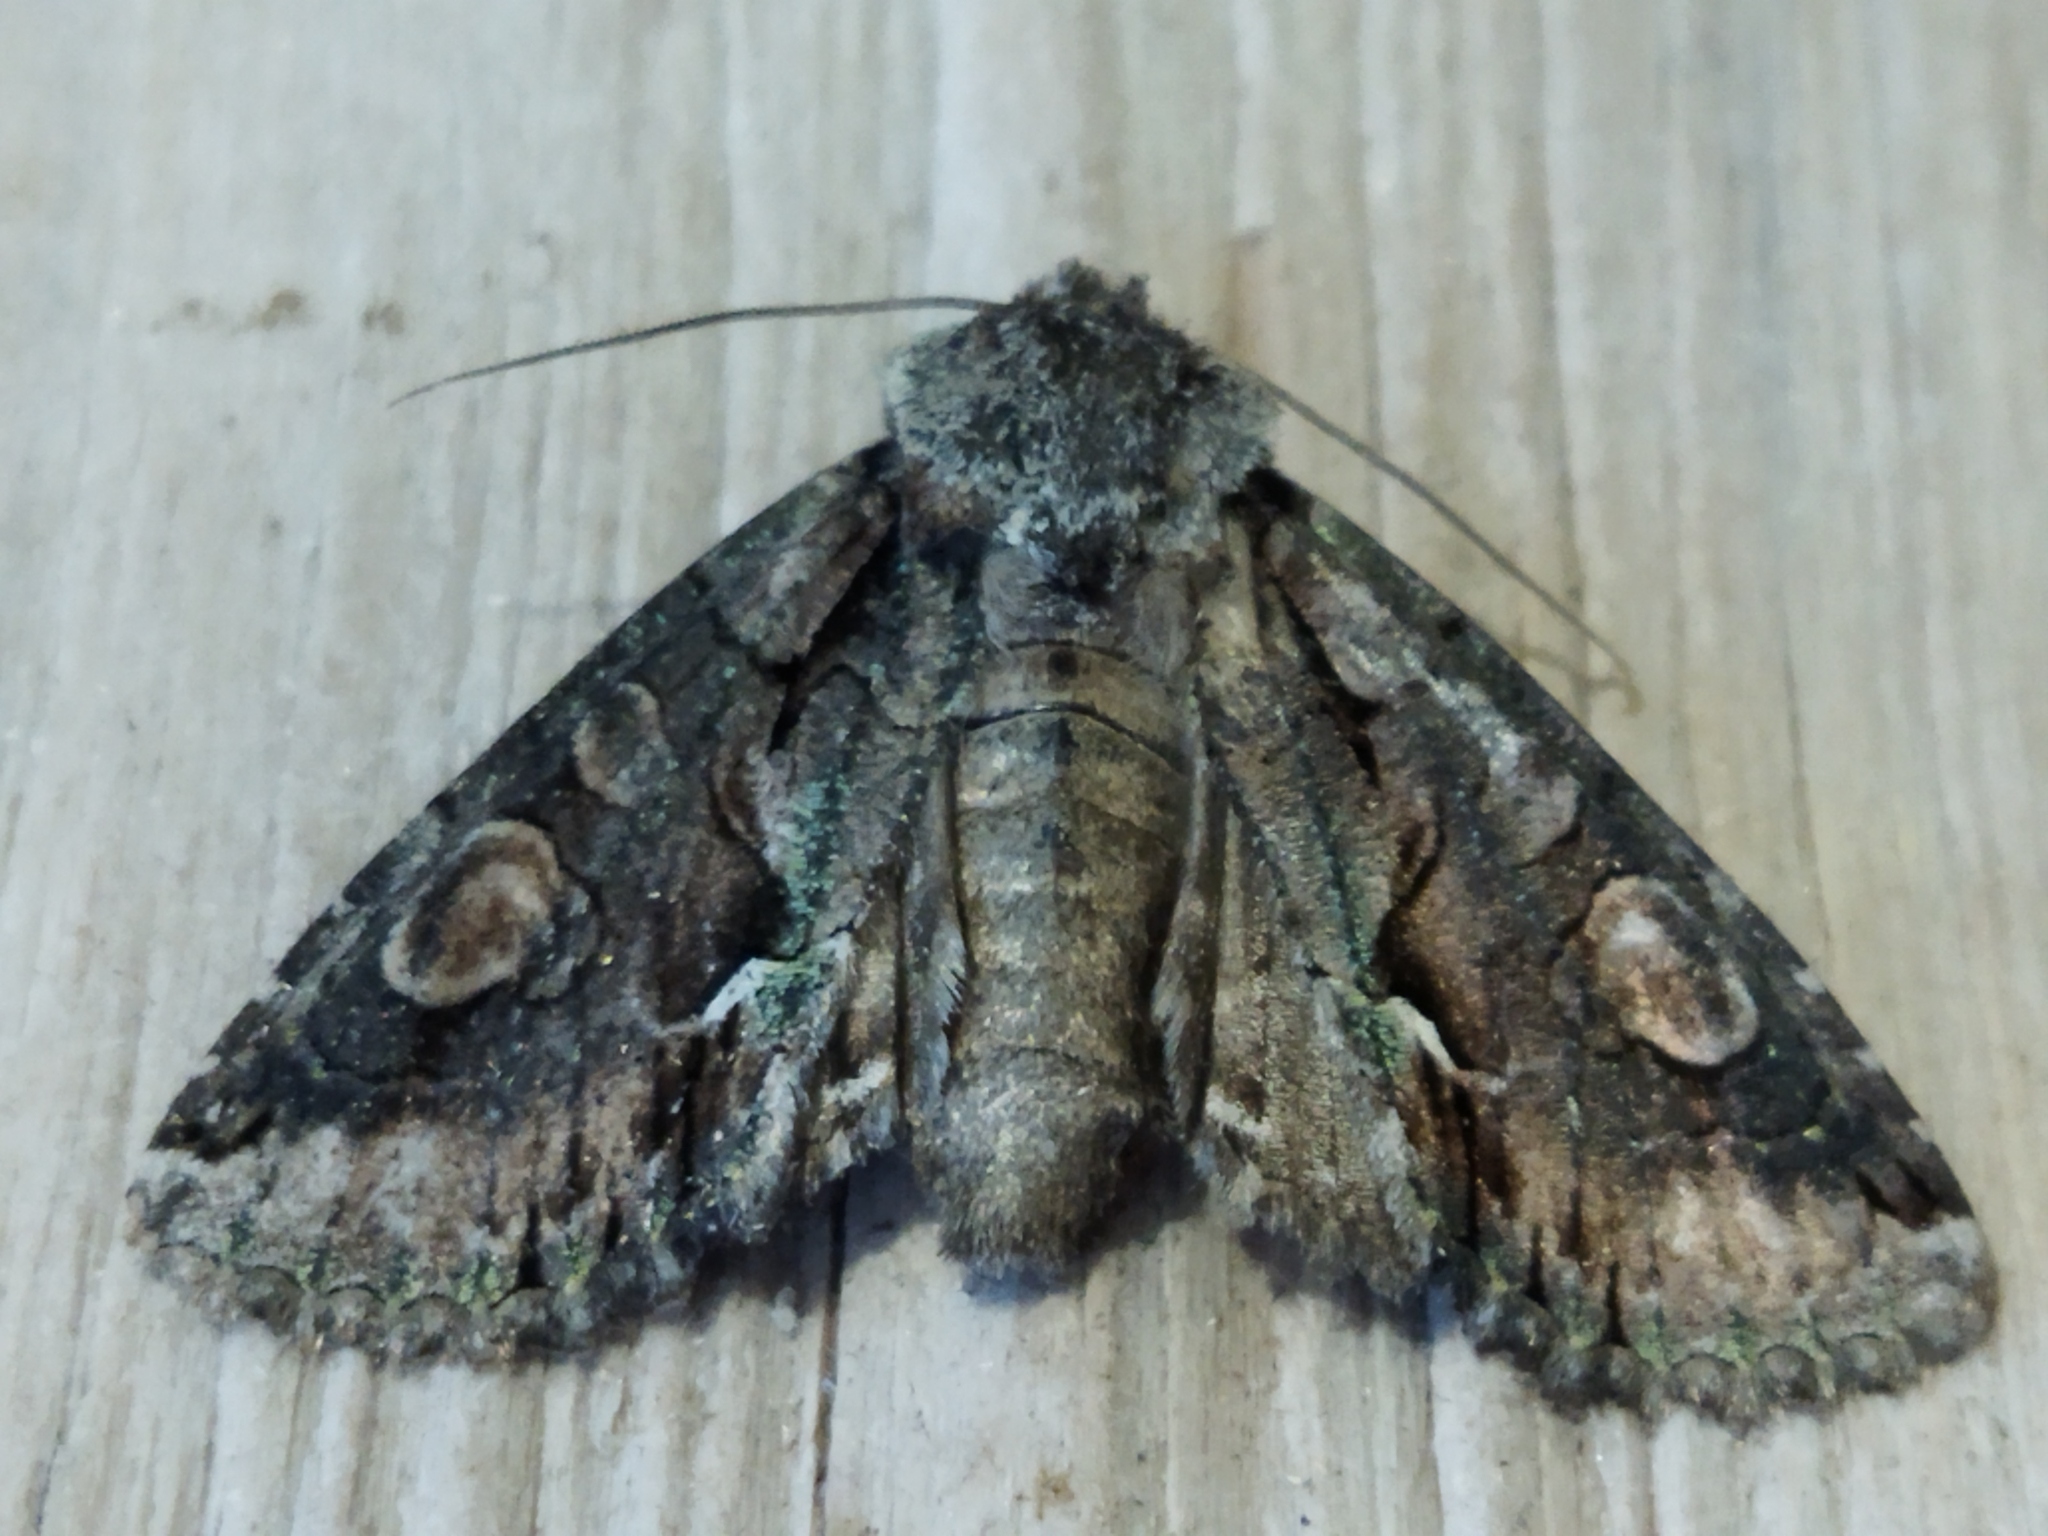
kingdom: Animalia
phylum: Arthropoda
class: Insecta
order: Lepidoptera
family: Noctuidae
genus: Allophyes
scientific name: Allophyes oxyacanthae
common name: Green-brindled crescent
